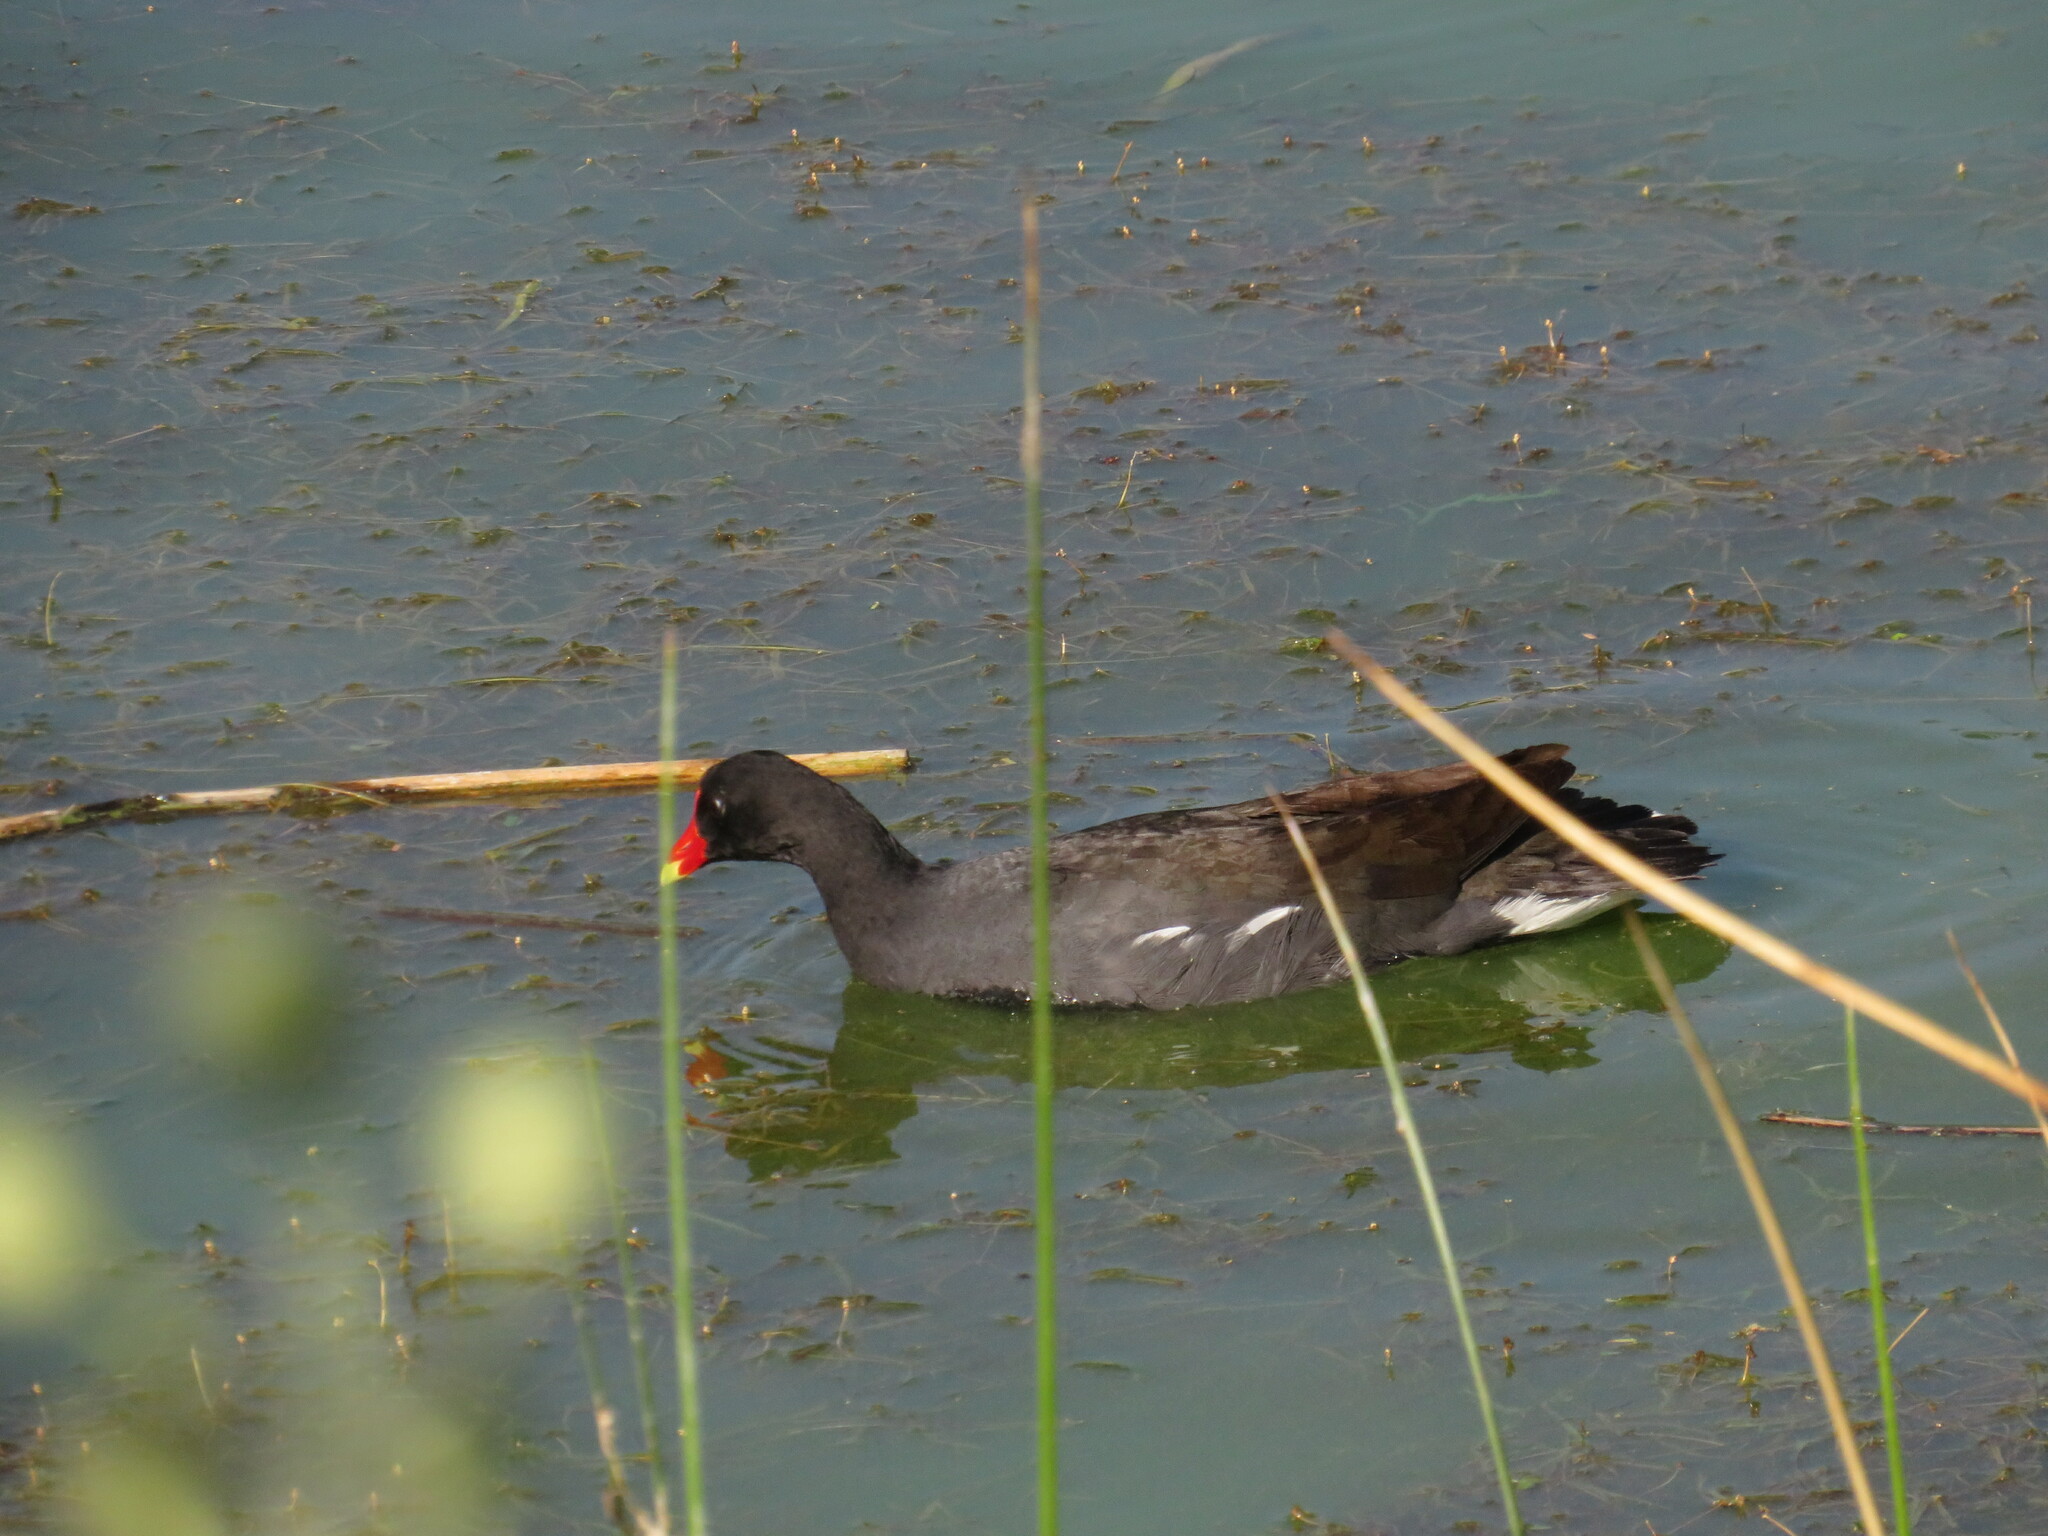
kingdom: Animalia
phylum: Chordata
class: Aves
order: Gruiformes
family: Rallidae
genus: Gallinula
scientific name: Gallinula chloropus
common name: Common moorhen
